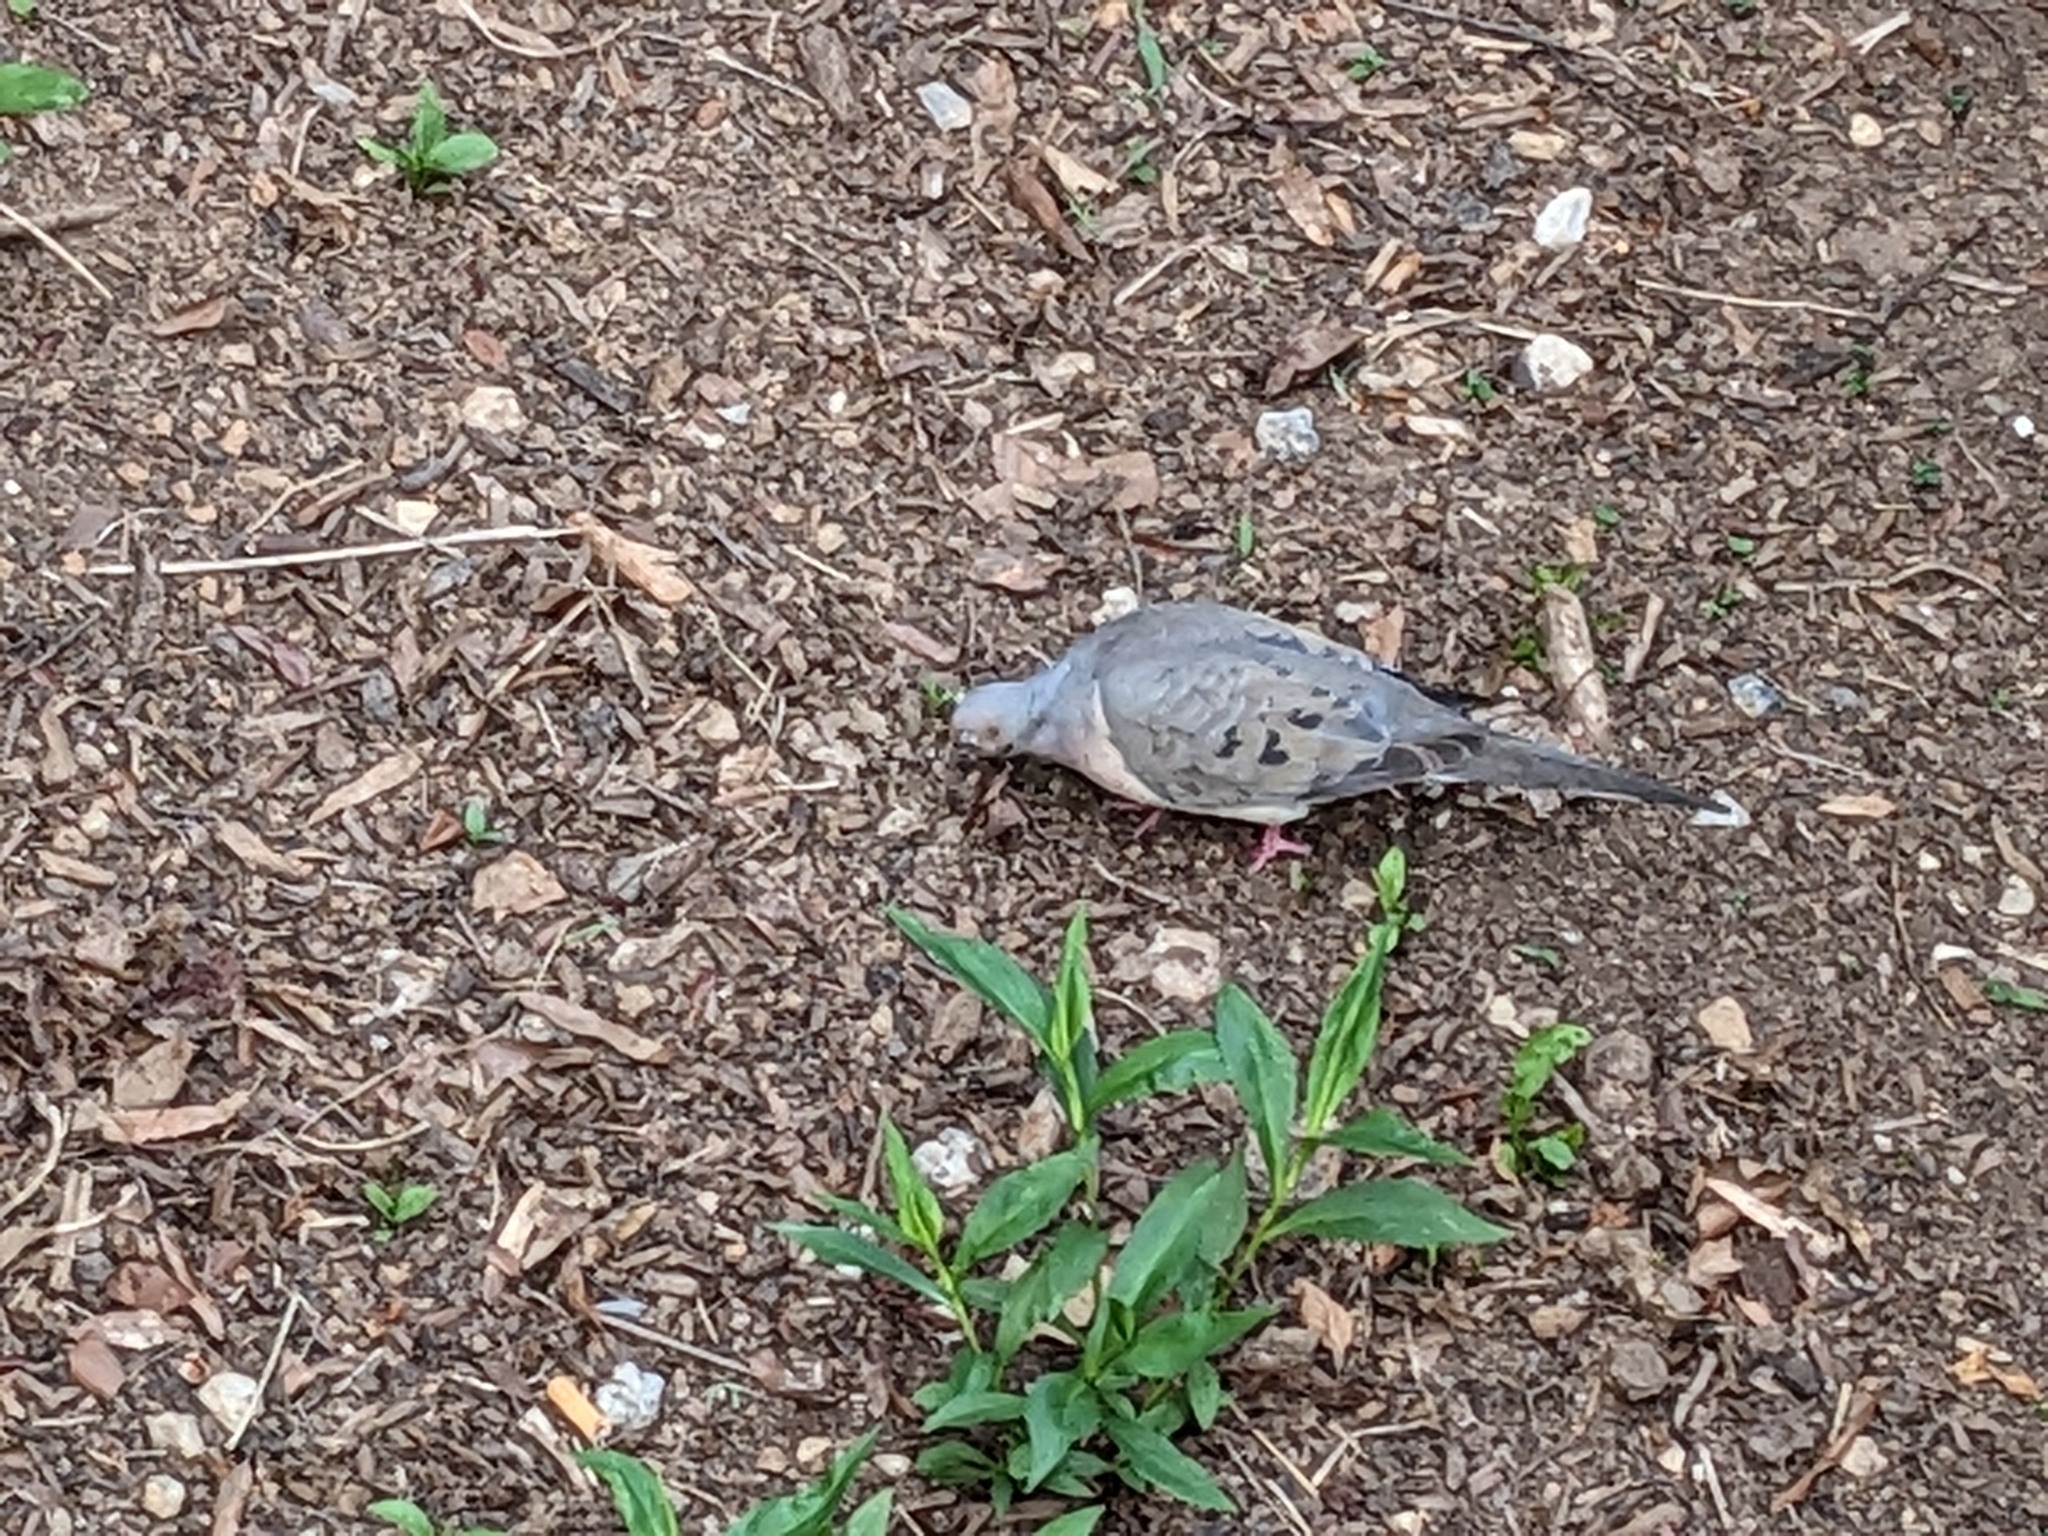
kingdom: Animalia
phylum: Chordata
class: Aves
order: Columbiformes
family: Columbidae
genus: Zenaida
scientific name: Zenaida macroura
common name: Mourning dove
